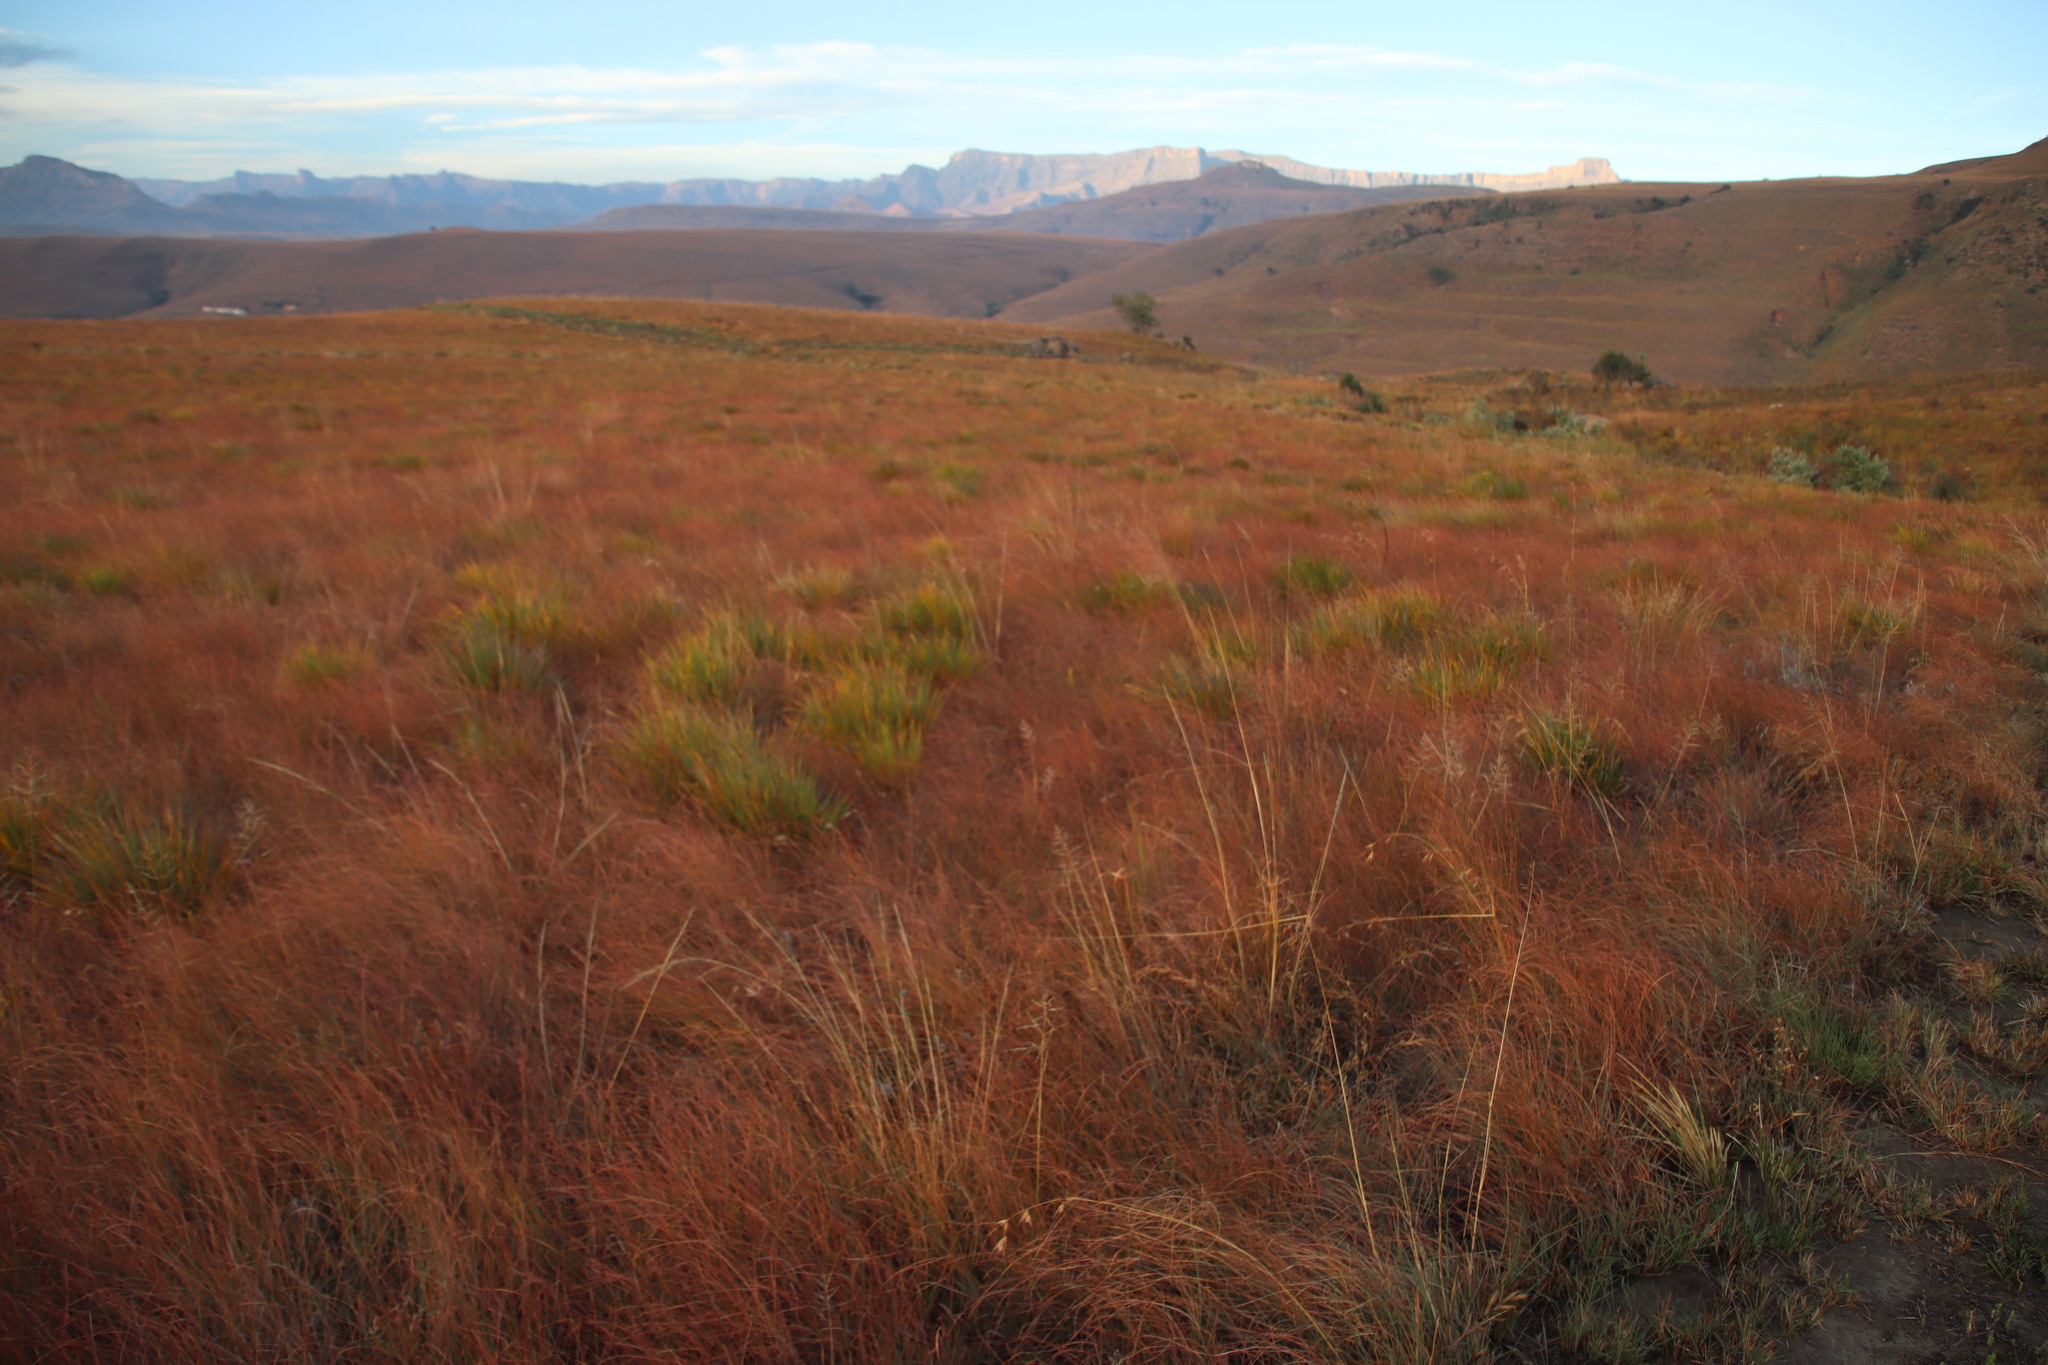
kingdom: Plantae
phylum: Tracheophyta
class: Liliopsida
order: Poales
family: Poaceae
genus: Themeda
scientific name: Themeda triandra
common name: Kangaroo grass
